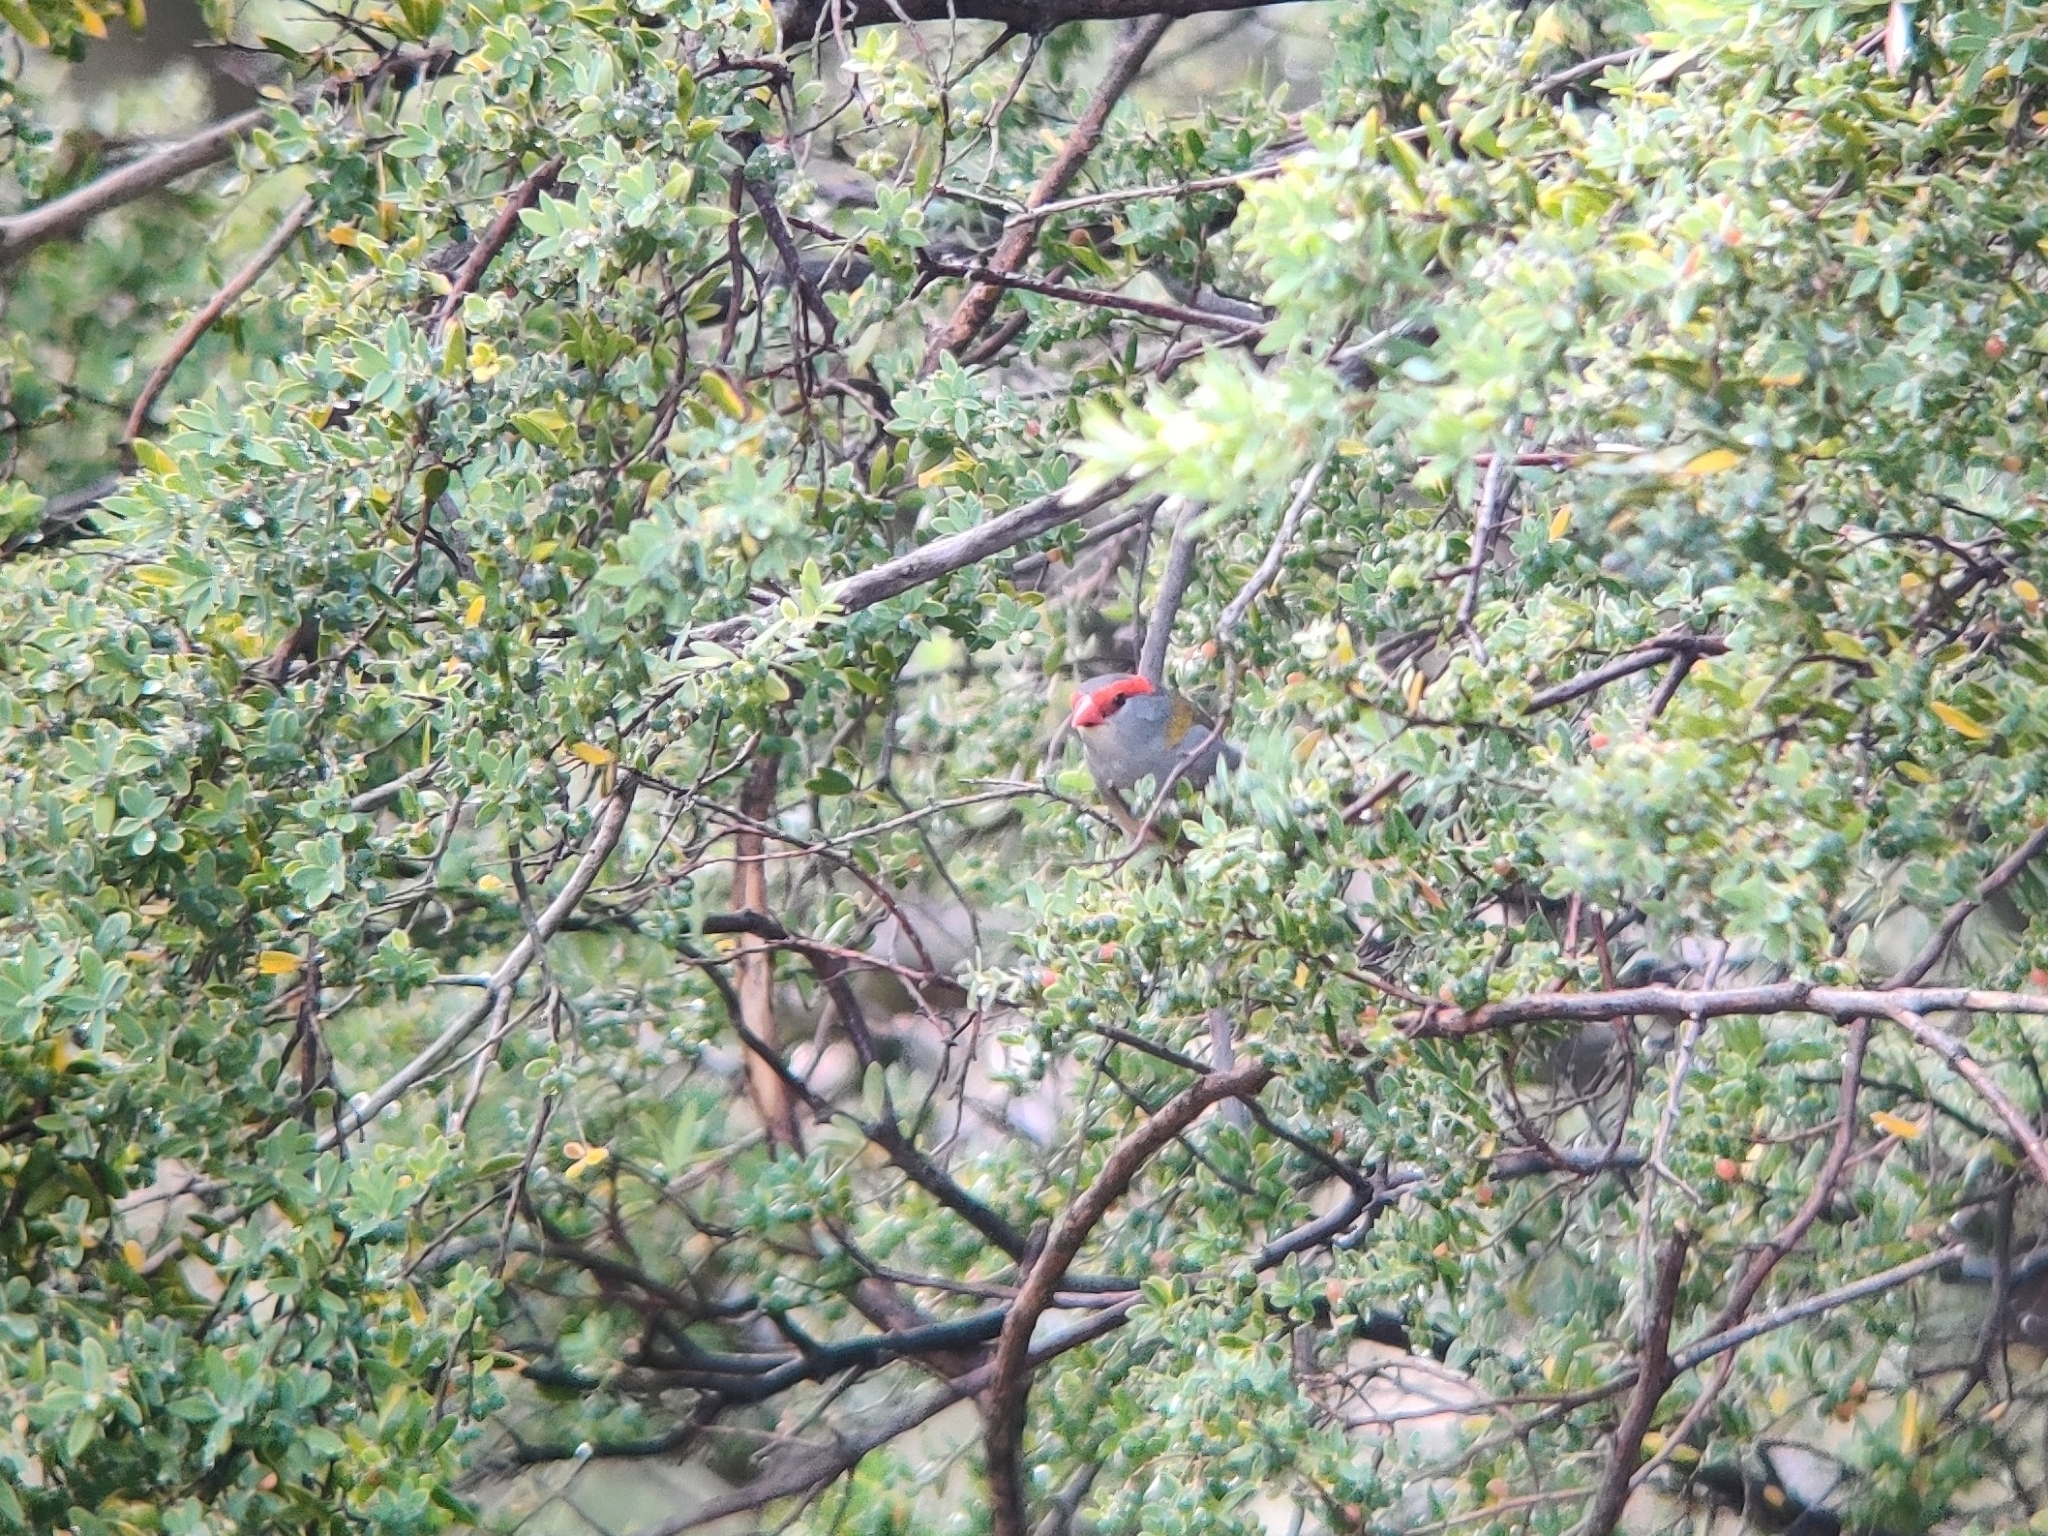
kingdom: Animalia
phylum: Chordata
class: Aves
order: Passeriformes
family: Estrildidae
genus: Neochmia
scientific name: Neochmia temporalis
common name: Red-browed finch
